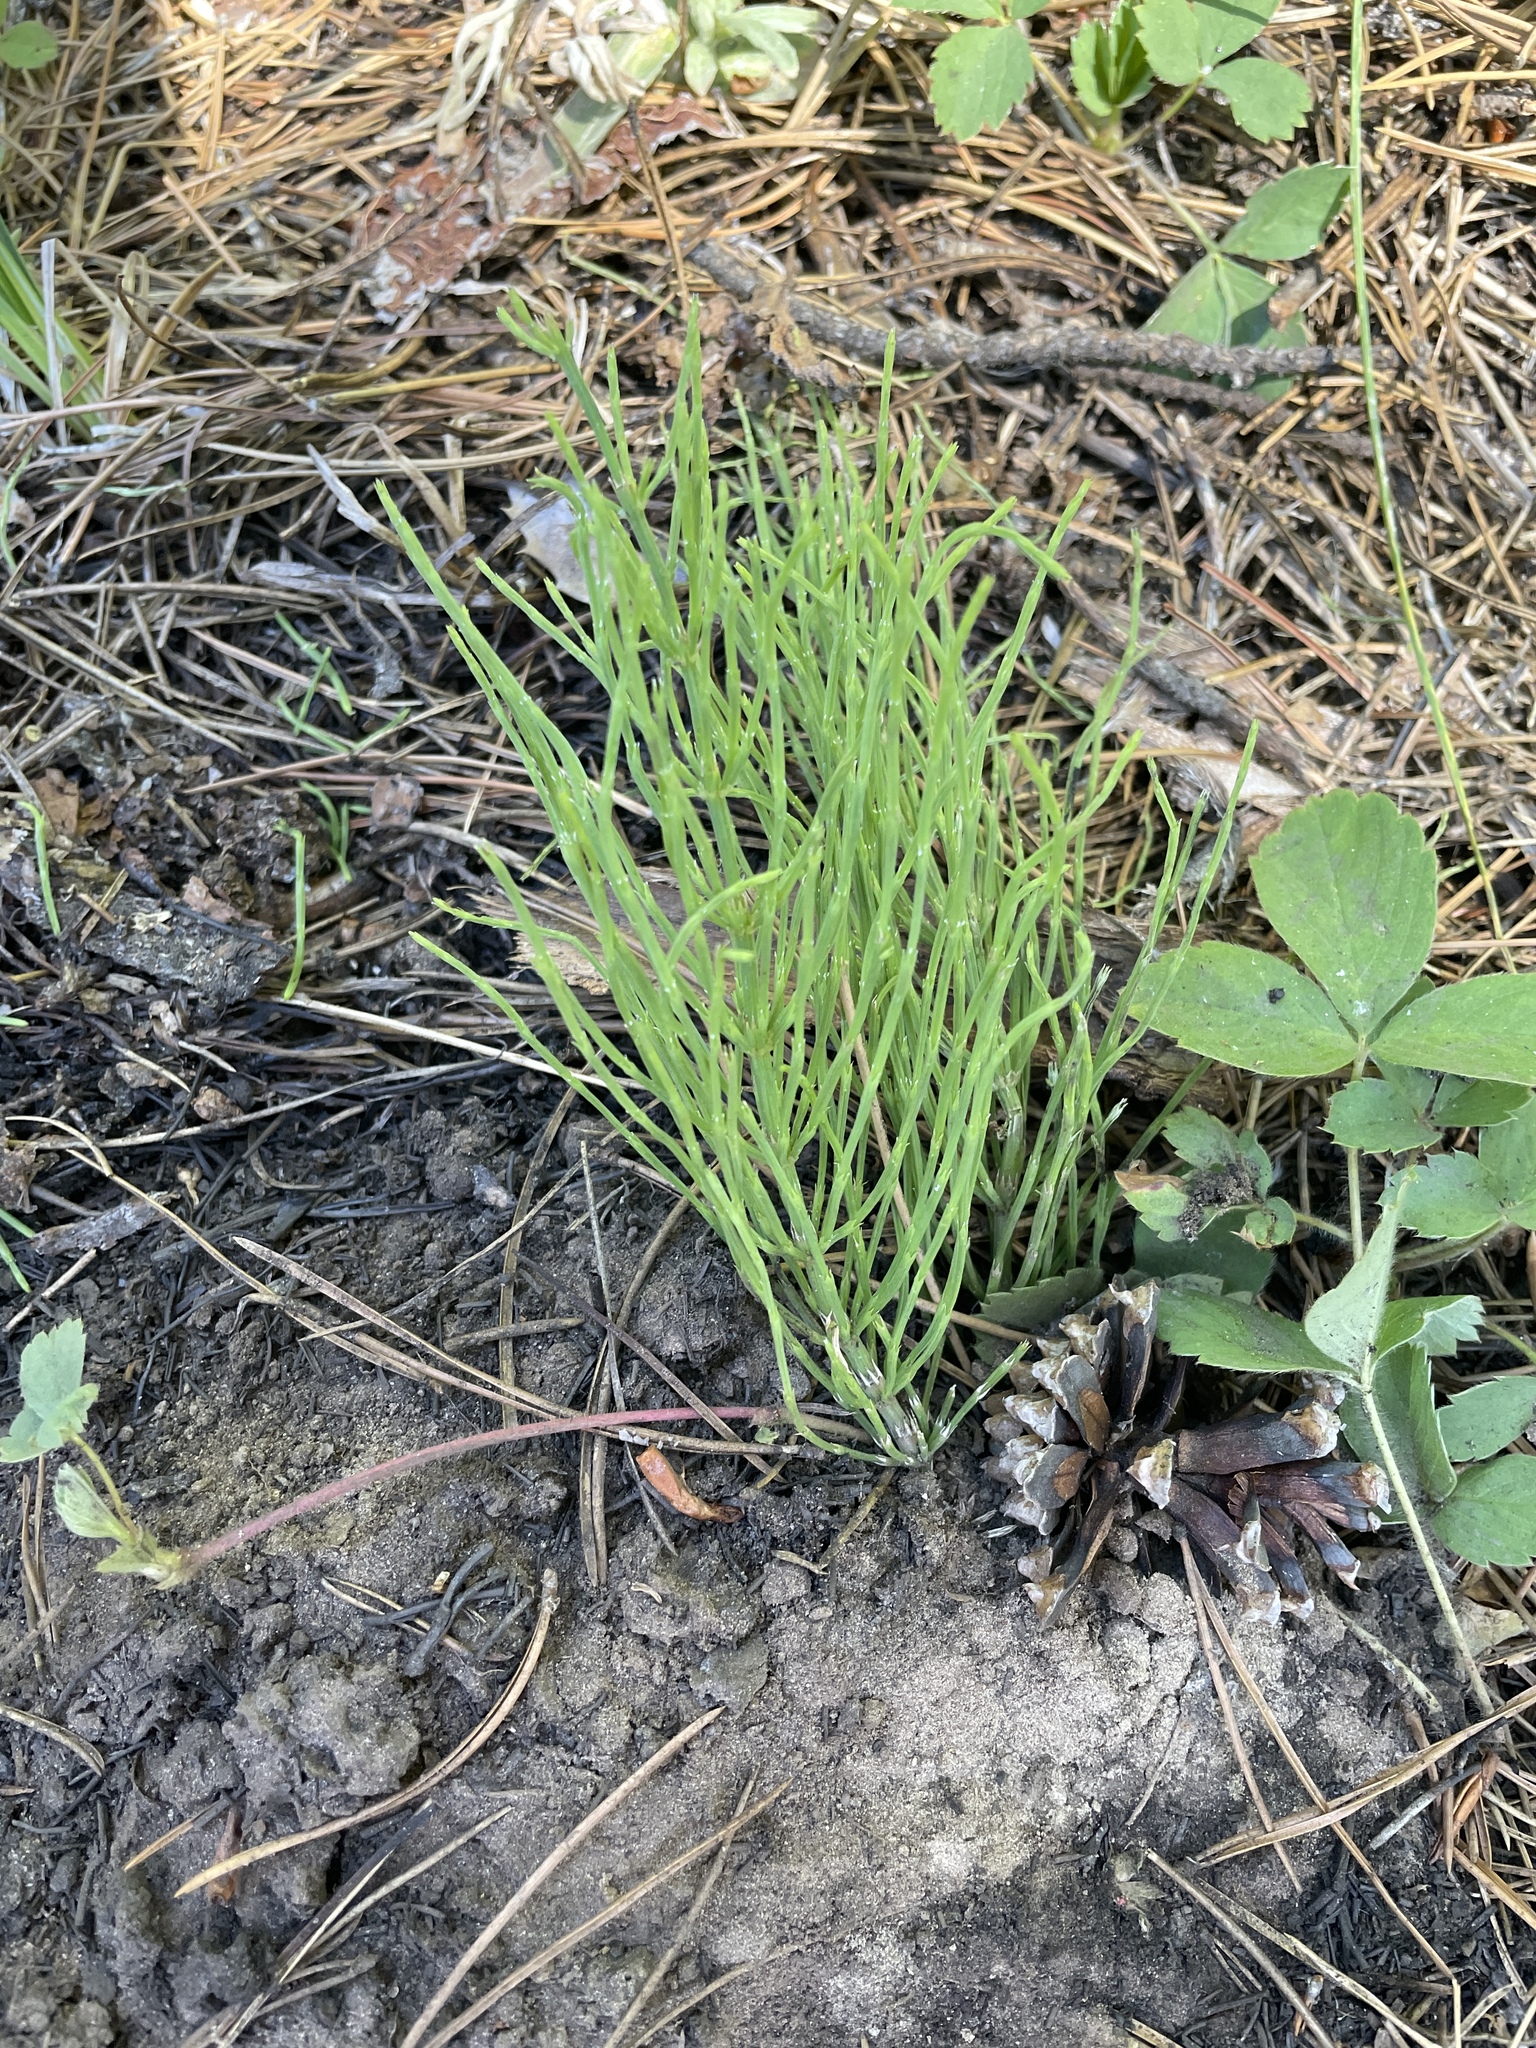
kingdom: Plantae
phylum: Tracheophyta
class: Polypodiopsida
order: Equisetales
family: Equisetaceae
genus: Equisetum
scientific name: Equisetum arvense
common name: Field horsetail
